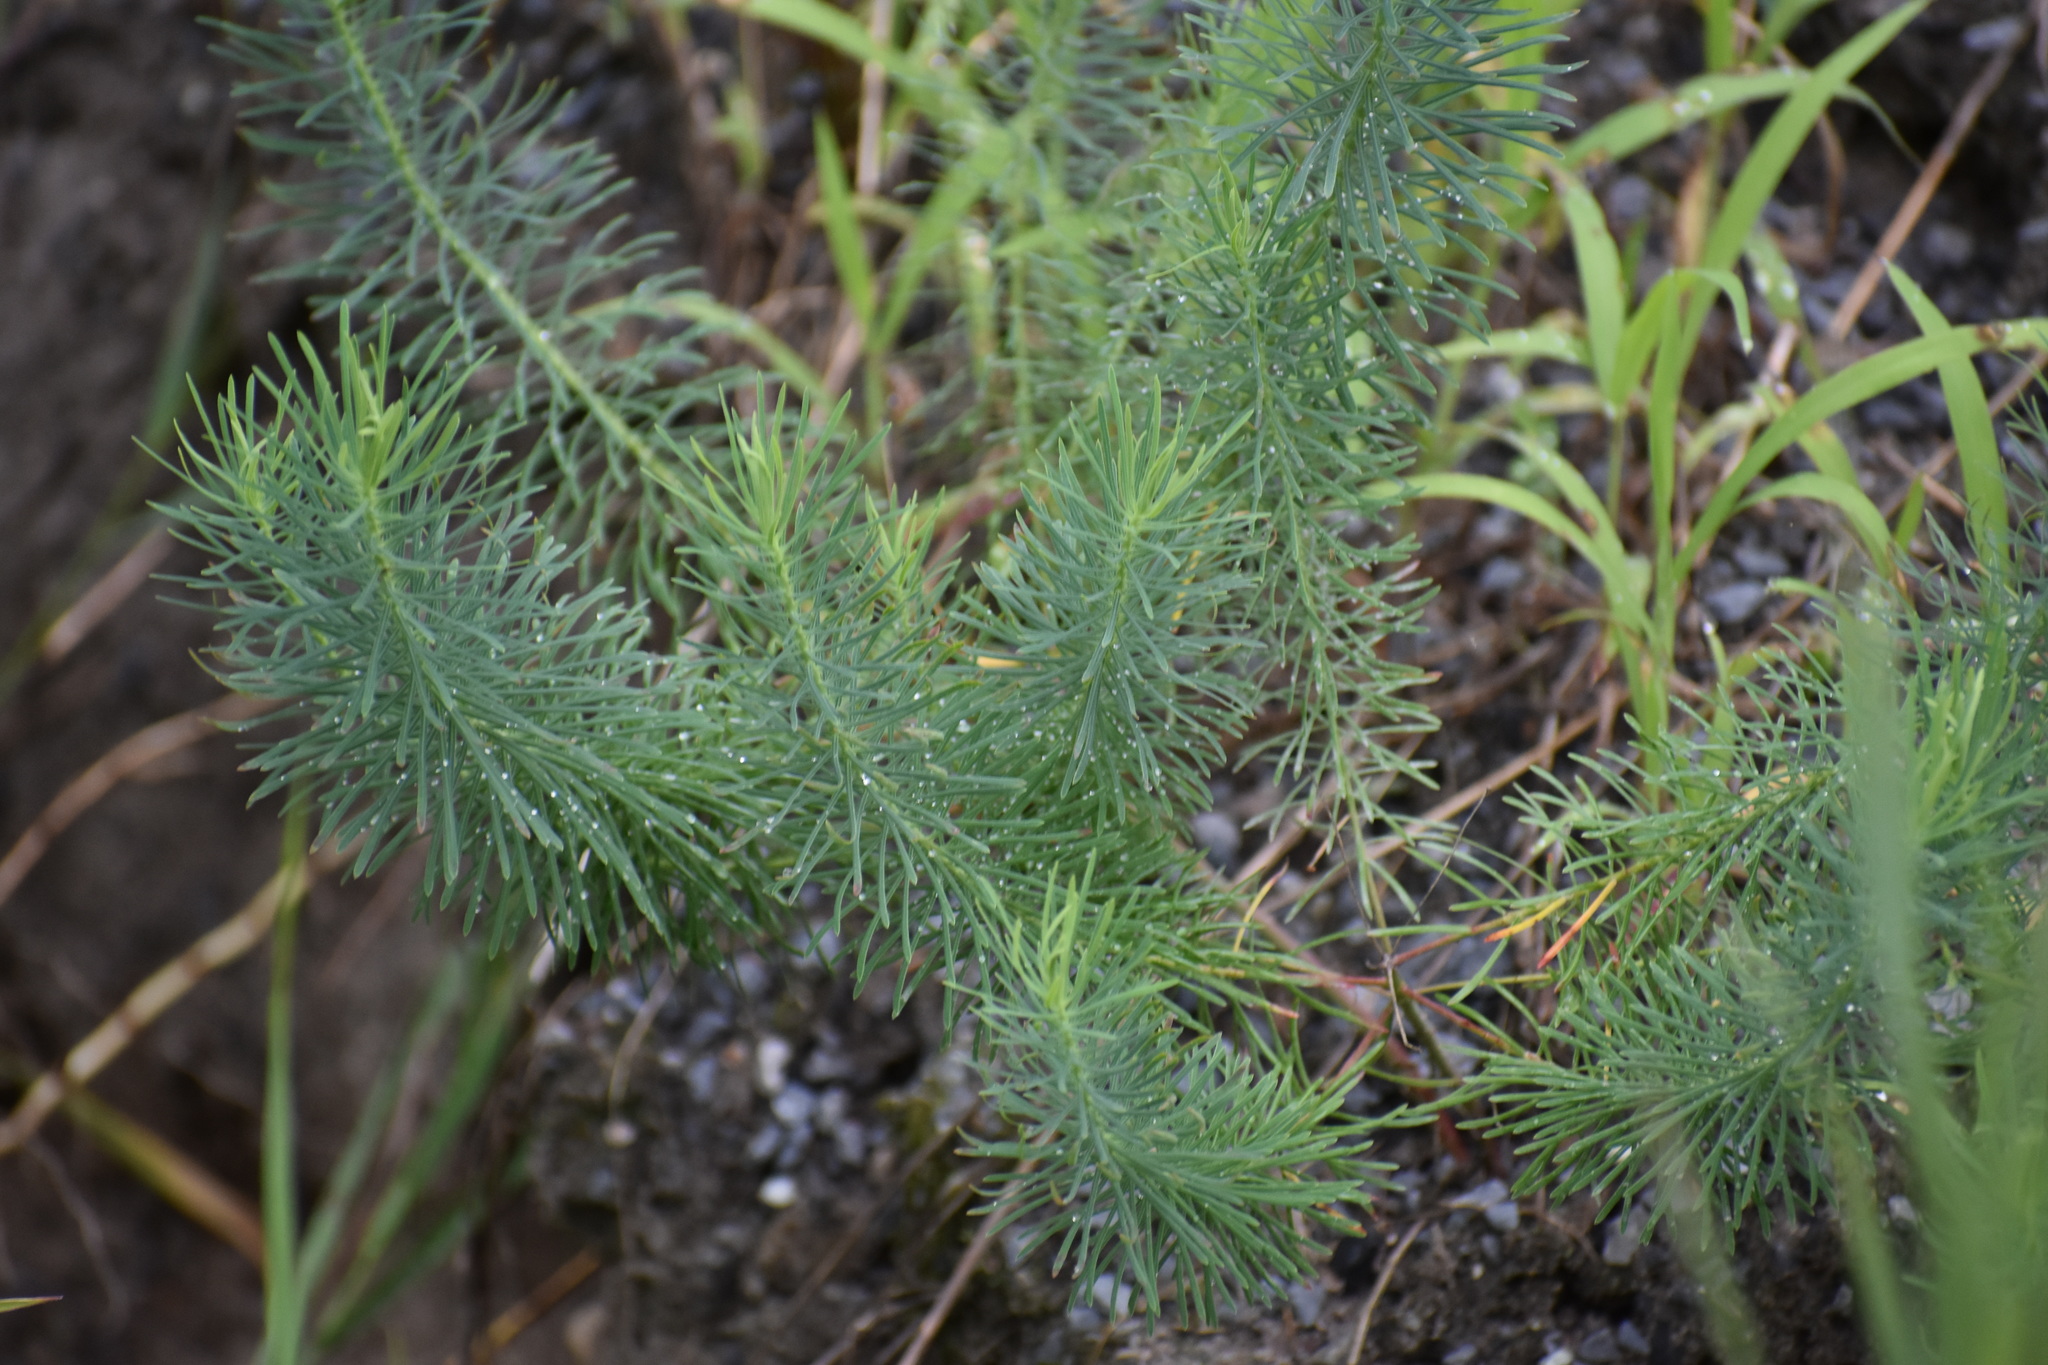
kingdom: Plantae
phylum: Tracheophyta
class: Magnoliopsida
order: Malpighiales
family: Euphorbiaceae
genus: Euphorbia
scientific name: Euphorbia cyparissias
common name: Cypress spurge
